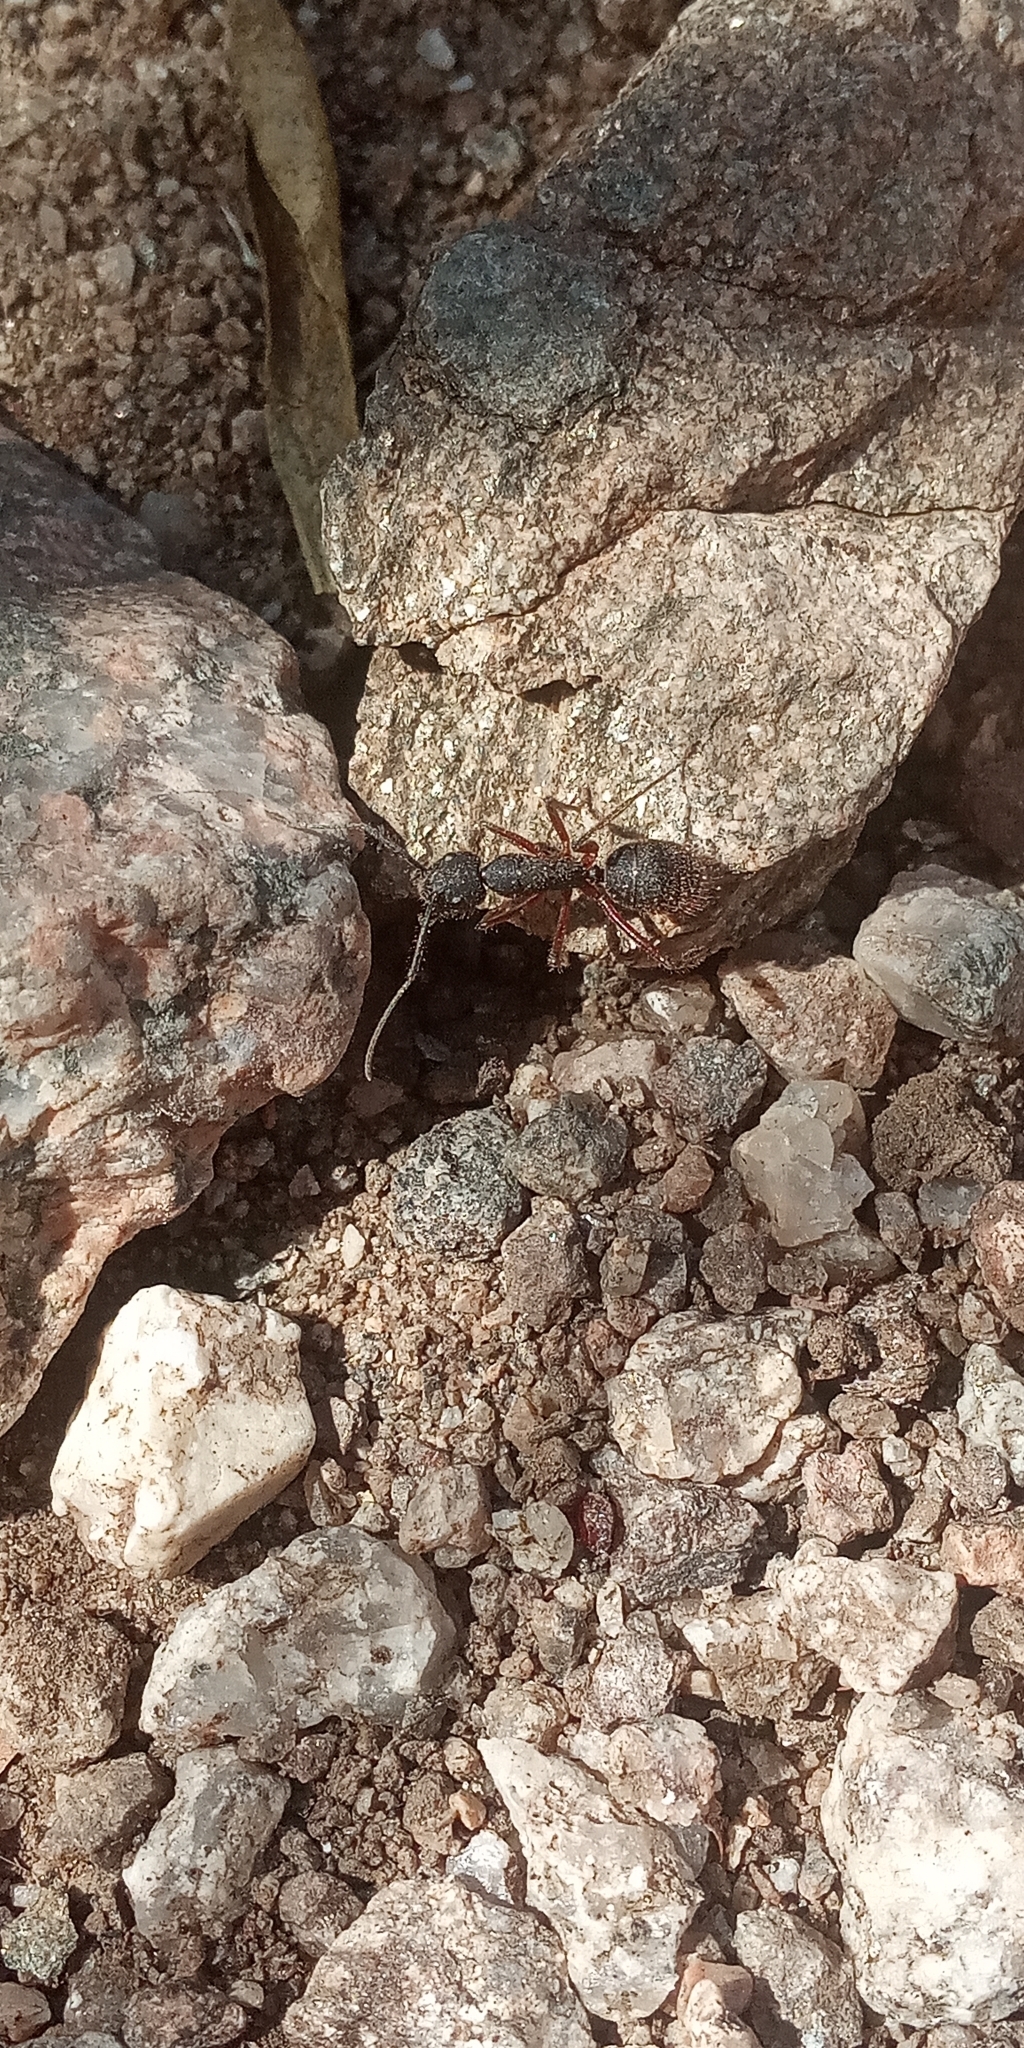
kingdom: Animalia
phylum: Arthropoda
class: Insecta
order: Hymenoptera
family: Formicidae
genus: Camponotus
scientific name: Camponotus rufipes
